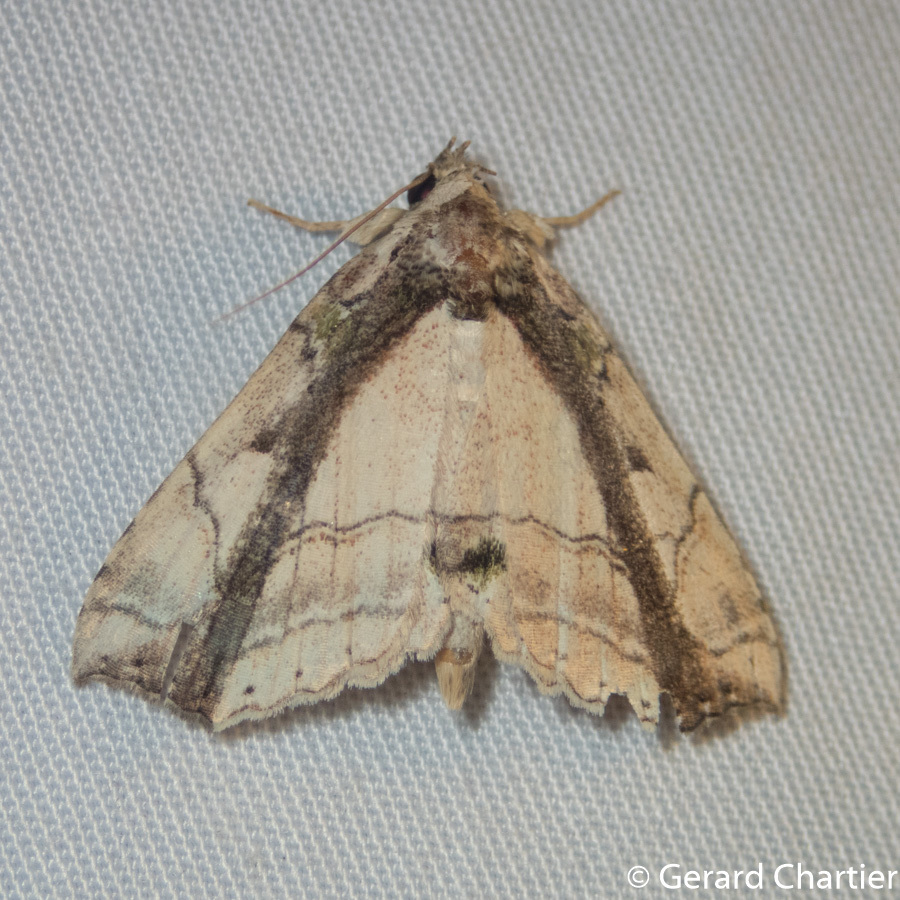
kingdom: Animalia
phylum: Arthropoda
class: Insecta
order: Lepidoptera
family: Erebidae
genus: Tamba
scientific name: Tamba lala
